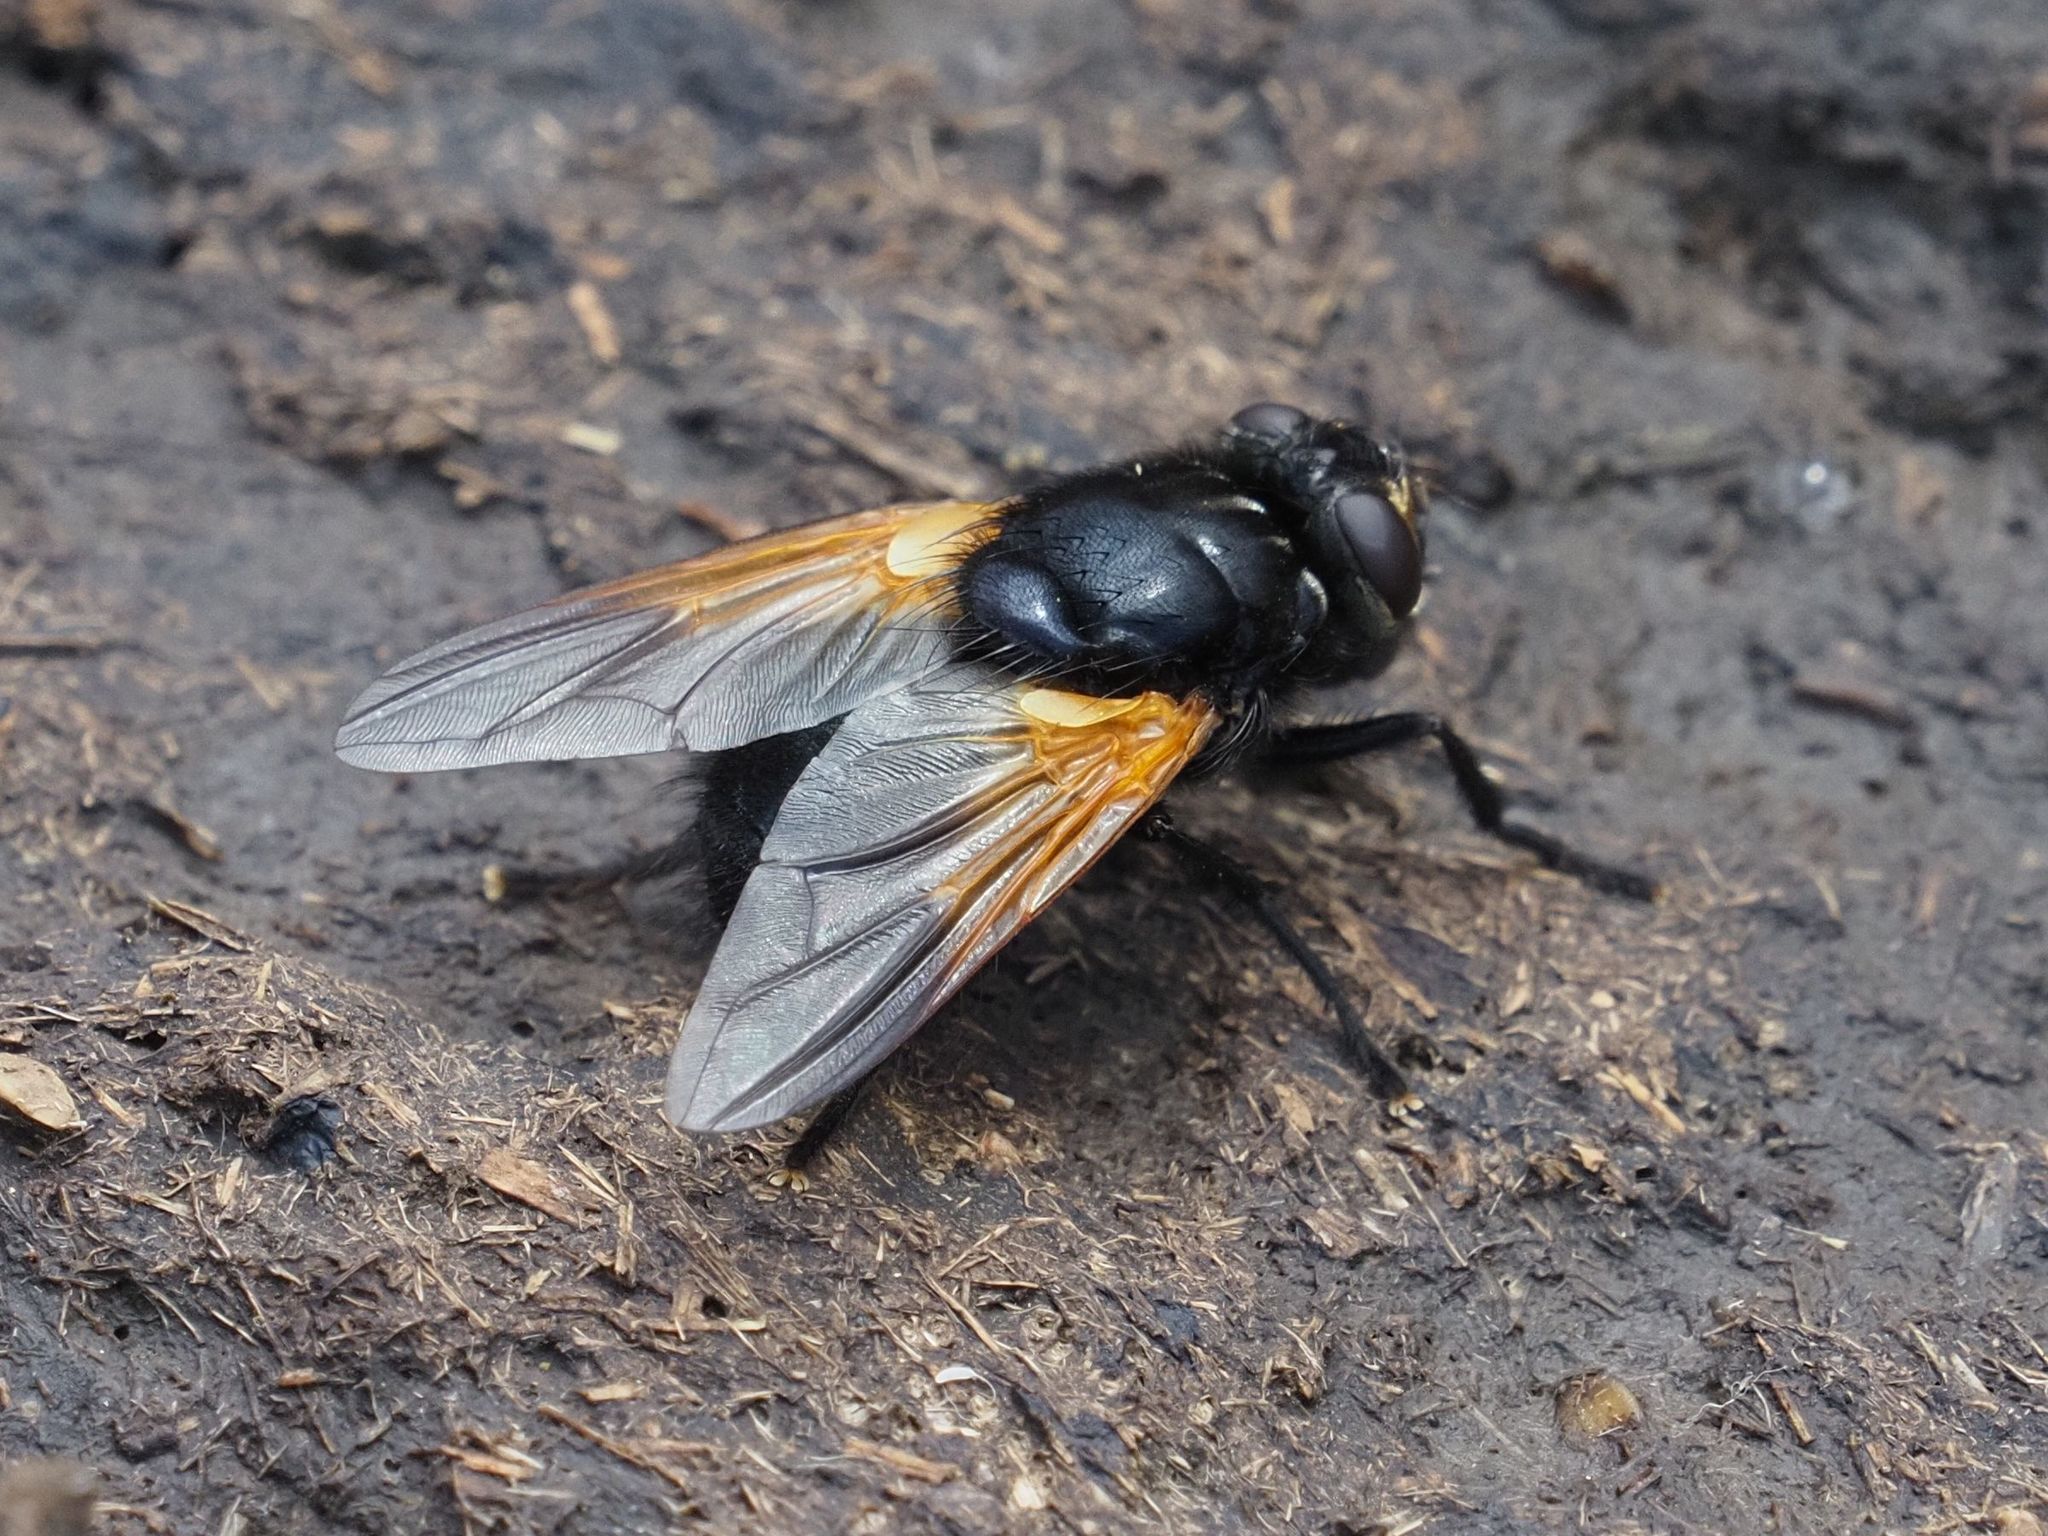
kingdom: Animalia
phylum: Arthropoda
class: Insecta
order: Diptera
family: Muscidae
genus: Mesembrina
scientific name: Mesembrina meridiana
